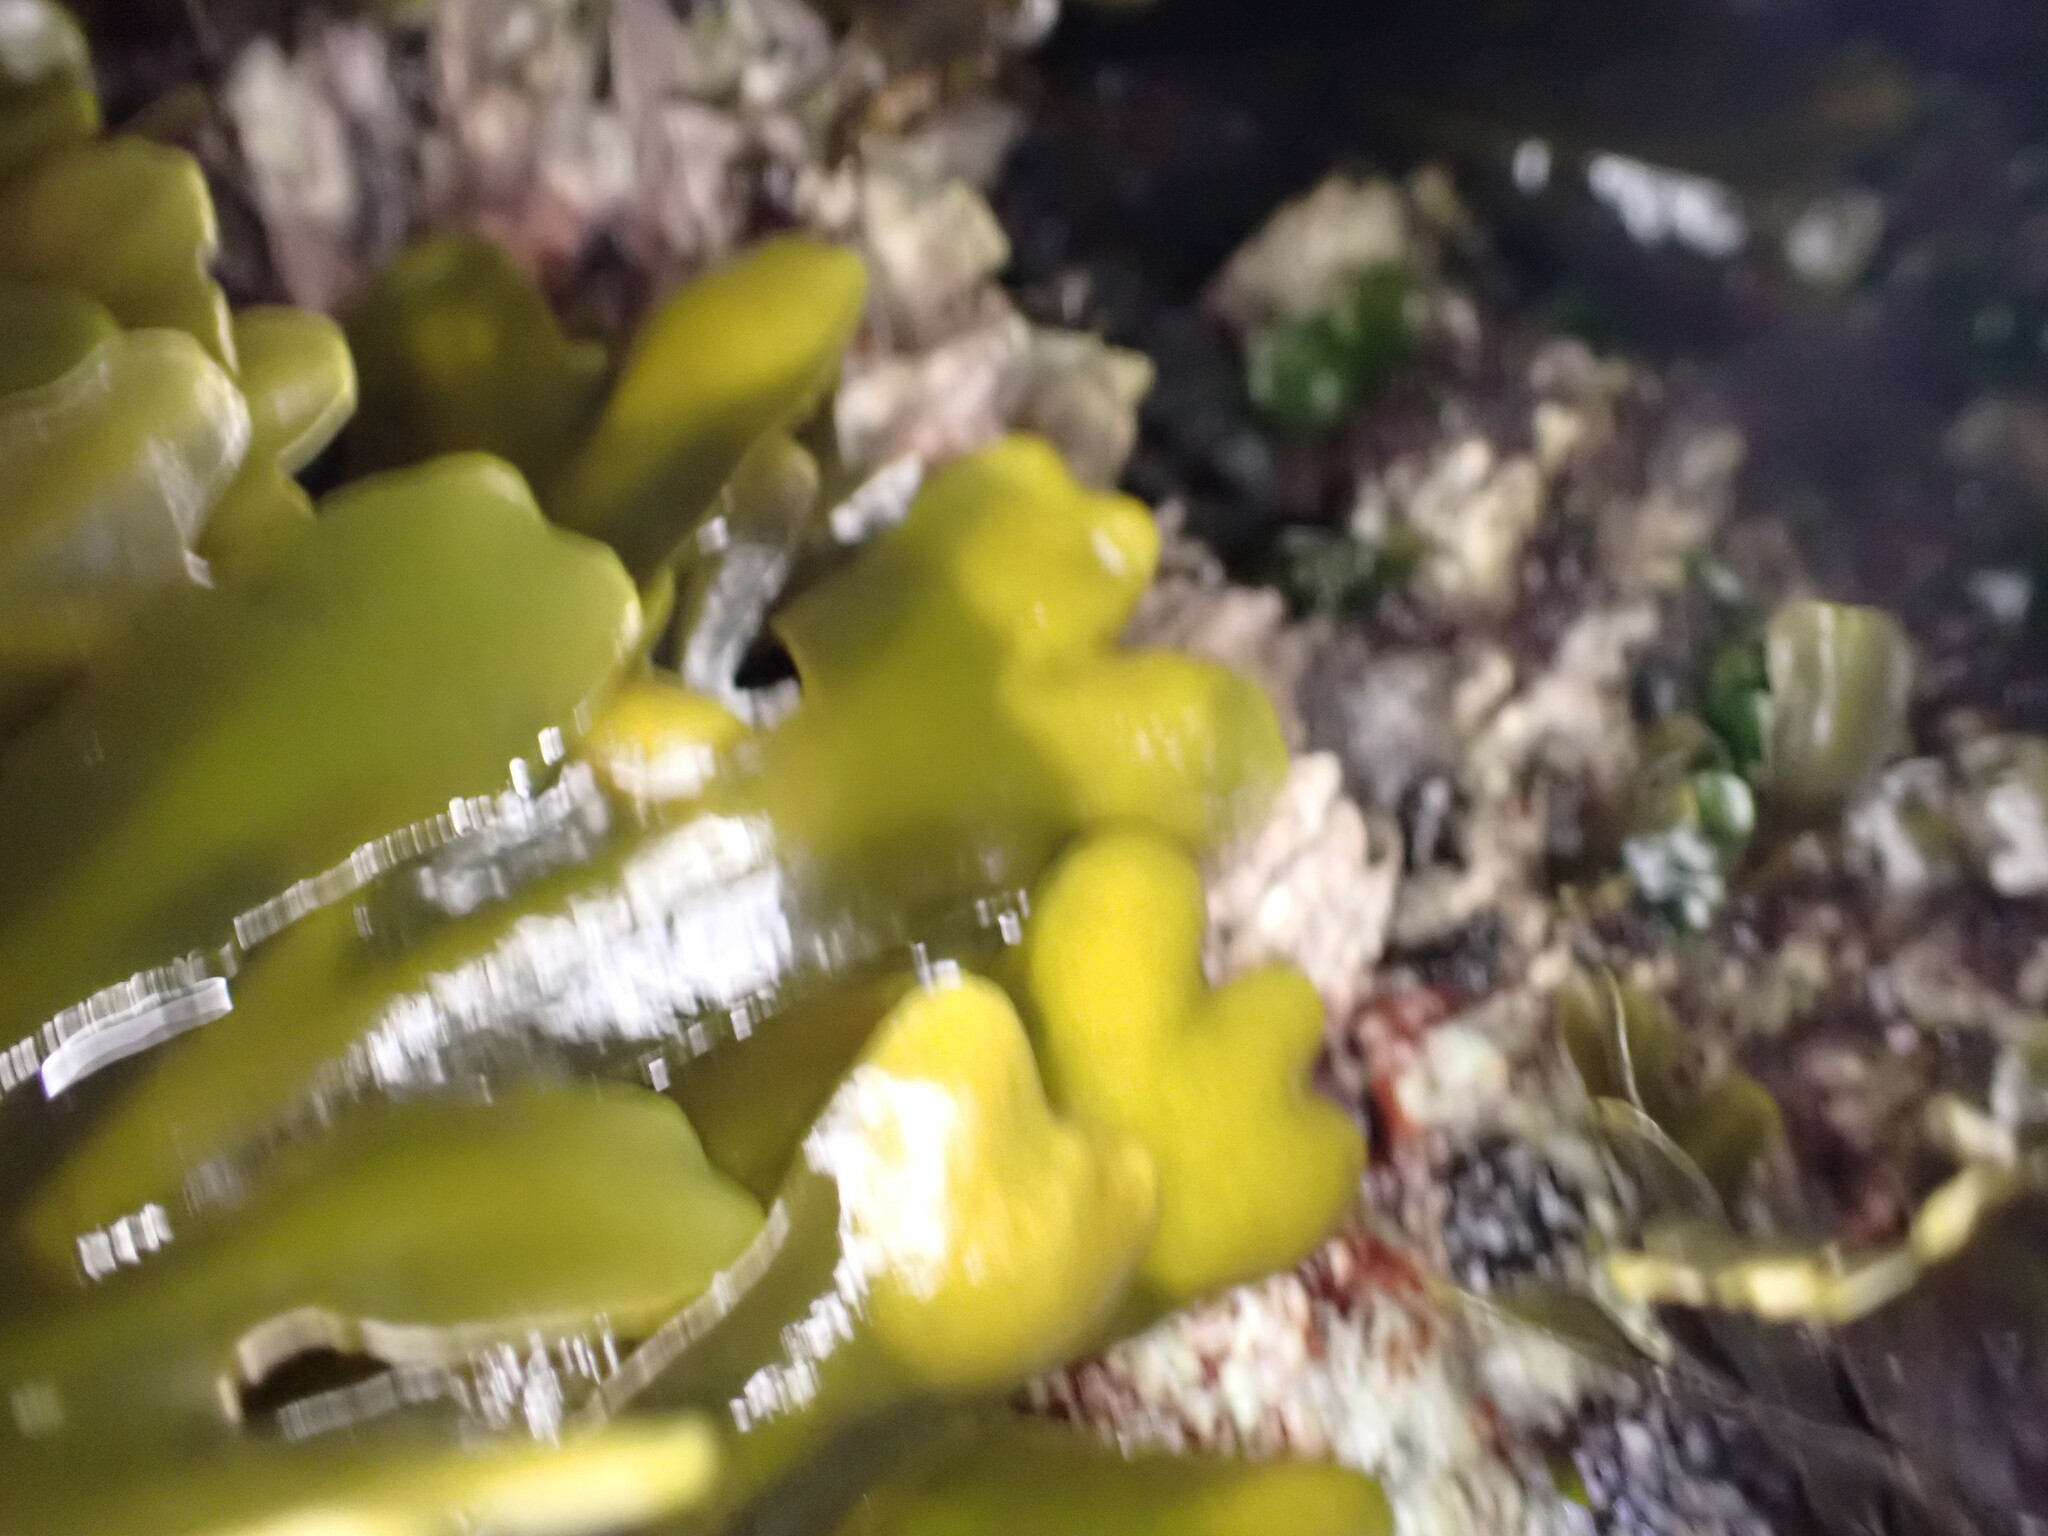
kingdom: Chromista
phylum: Ochrophyta
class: Phaeophyceae
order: Fucales
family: Fucaceae
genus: Fucus
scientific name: Fucus distichus
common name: Rockweed
